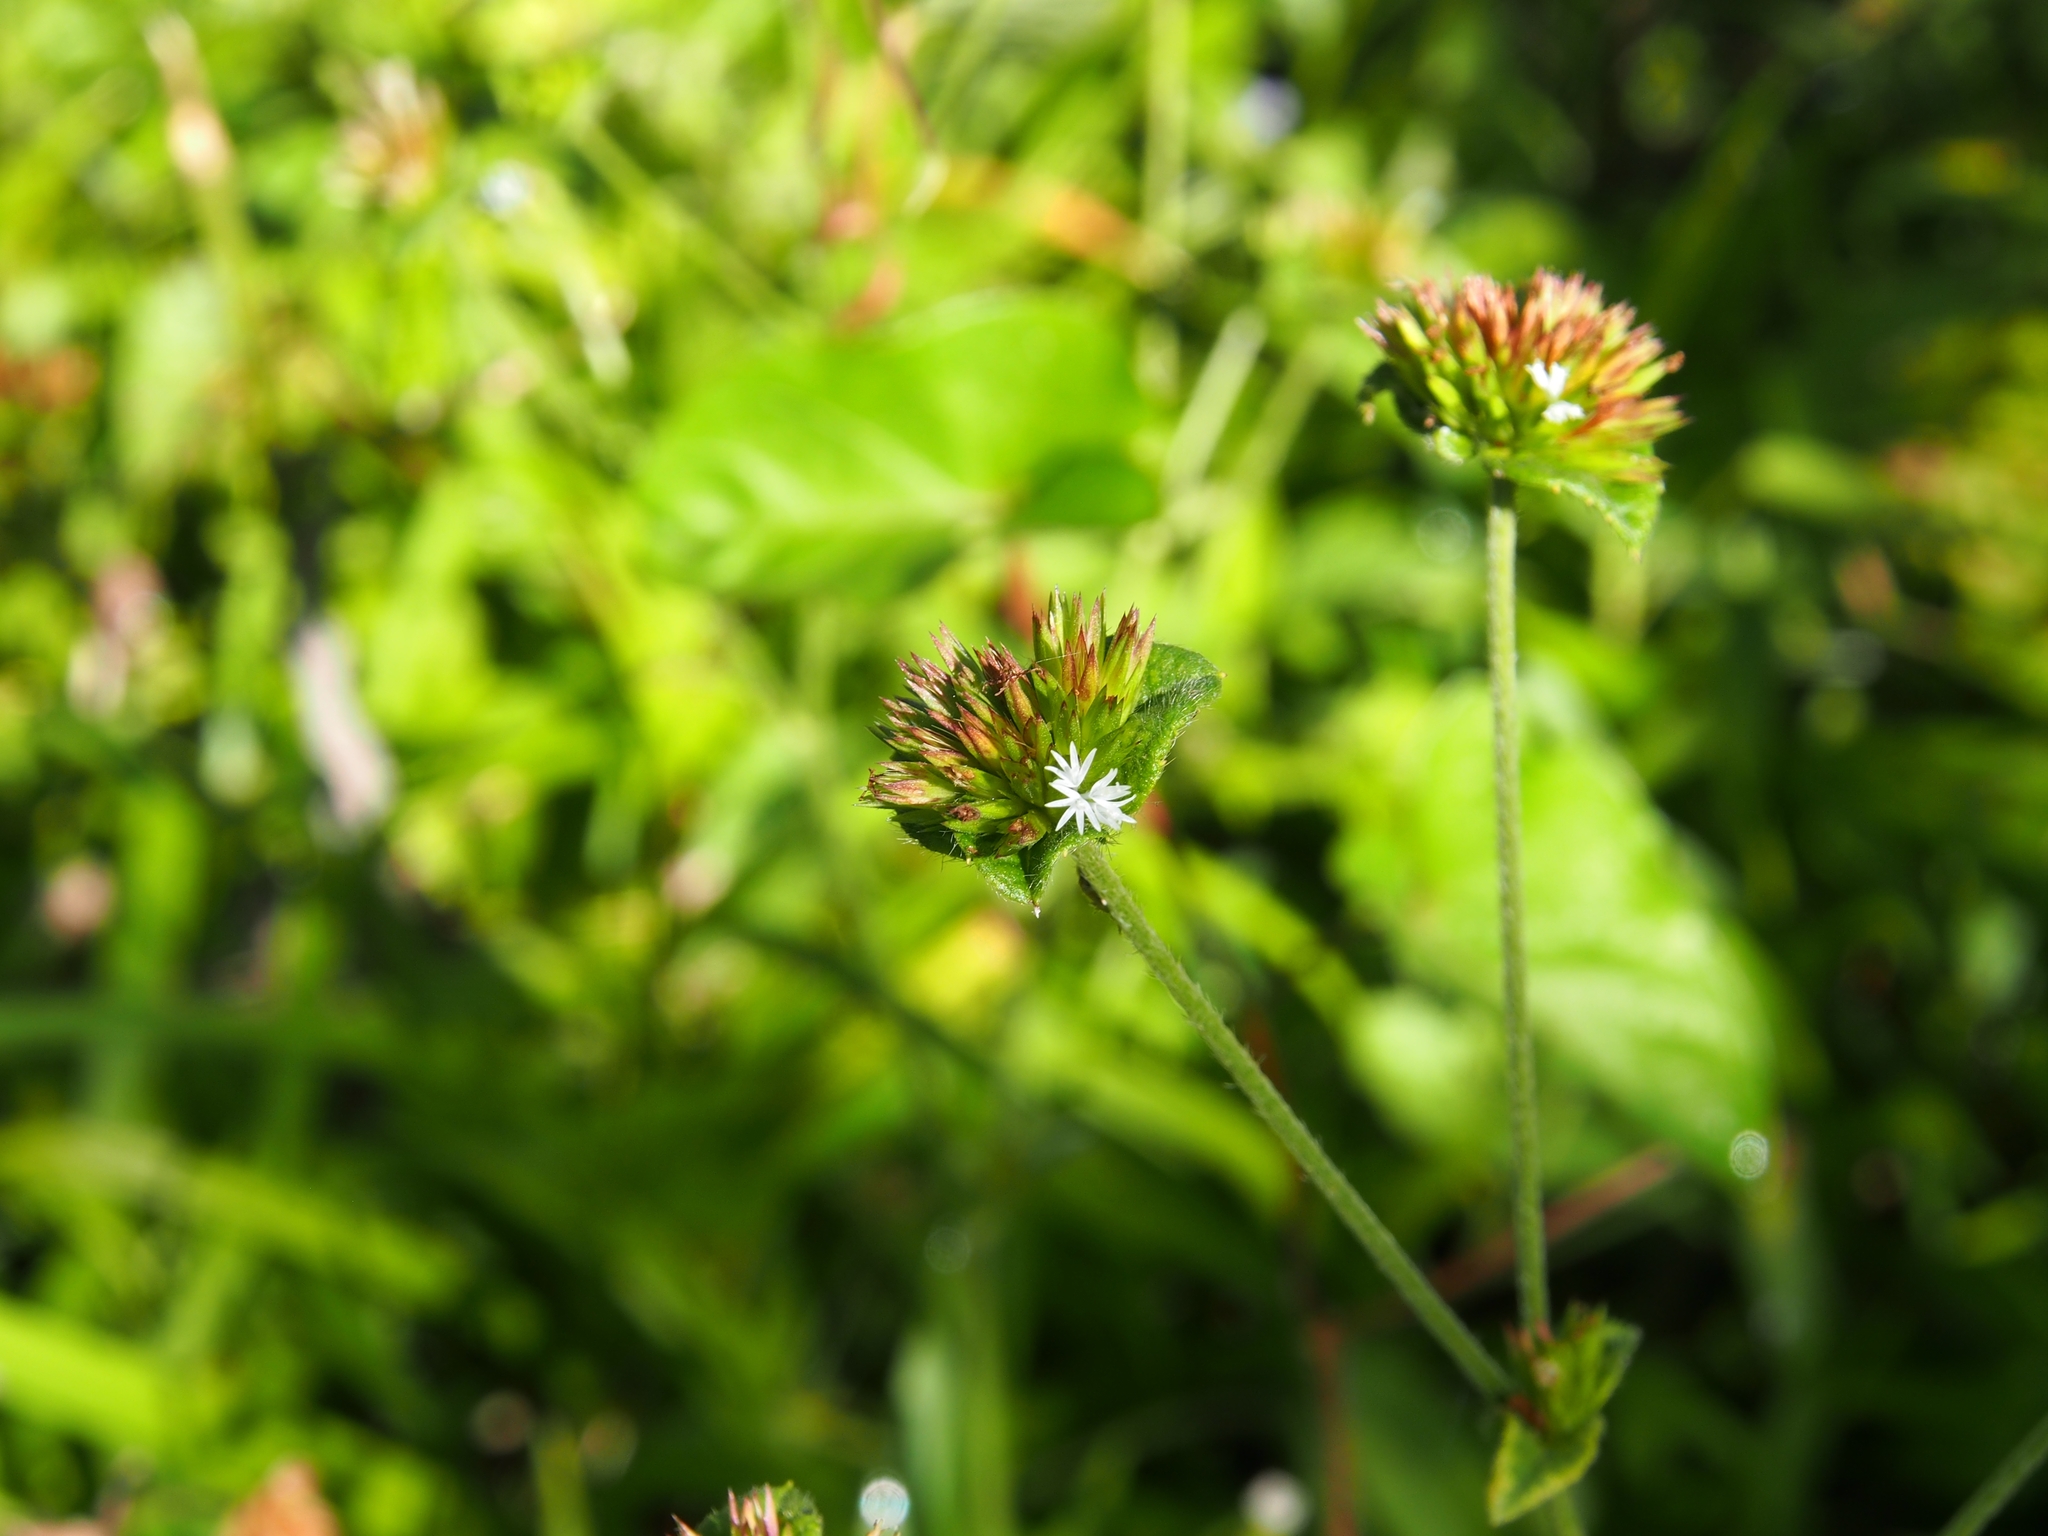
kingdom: Plantae
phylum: Tracheophyta
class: Magnoliopsida
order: Asterales
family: Asteraceae
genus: Elephantopus
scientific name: Elephantopus mollis
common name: Soft elephantsfoot
